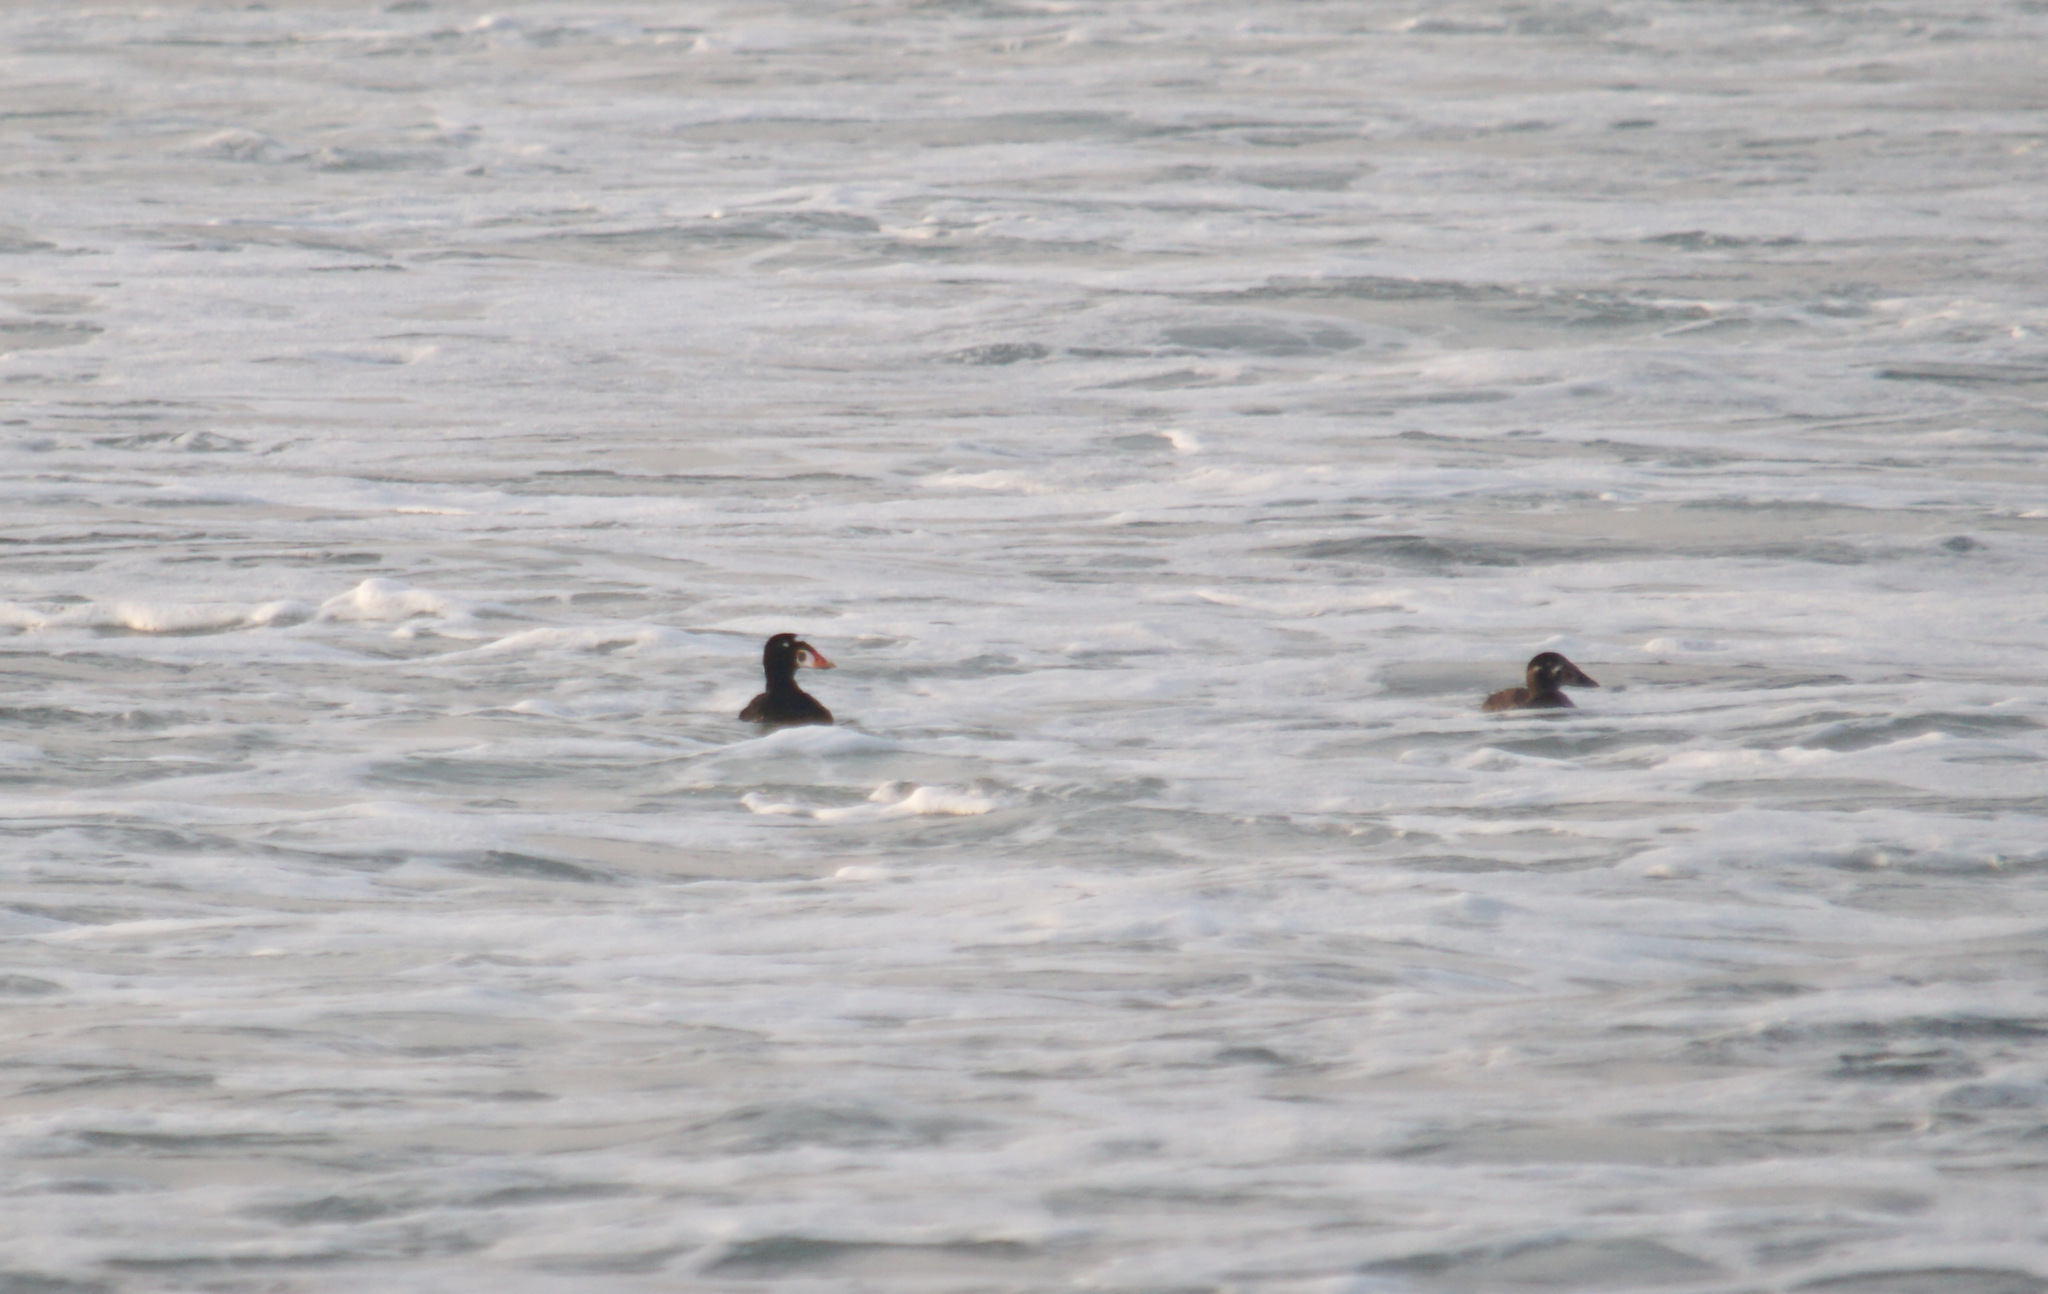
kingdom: Animalia
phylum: Chordata
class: Aves
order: Anseriformes
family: Anatidae
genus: Melanitta
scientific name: Melanitta perspicillata
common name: Surf scoter
